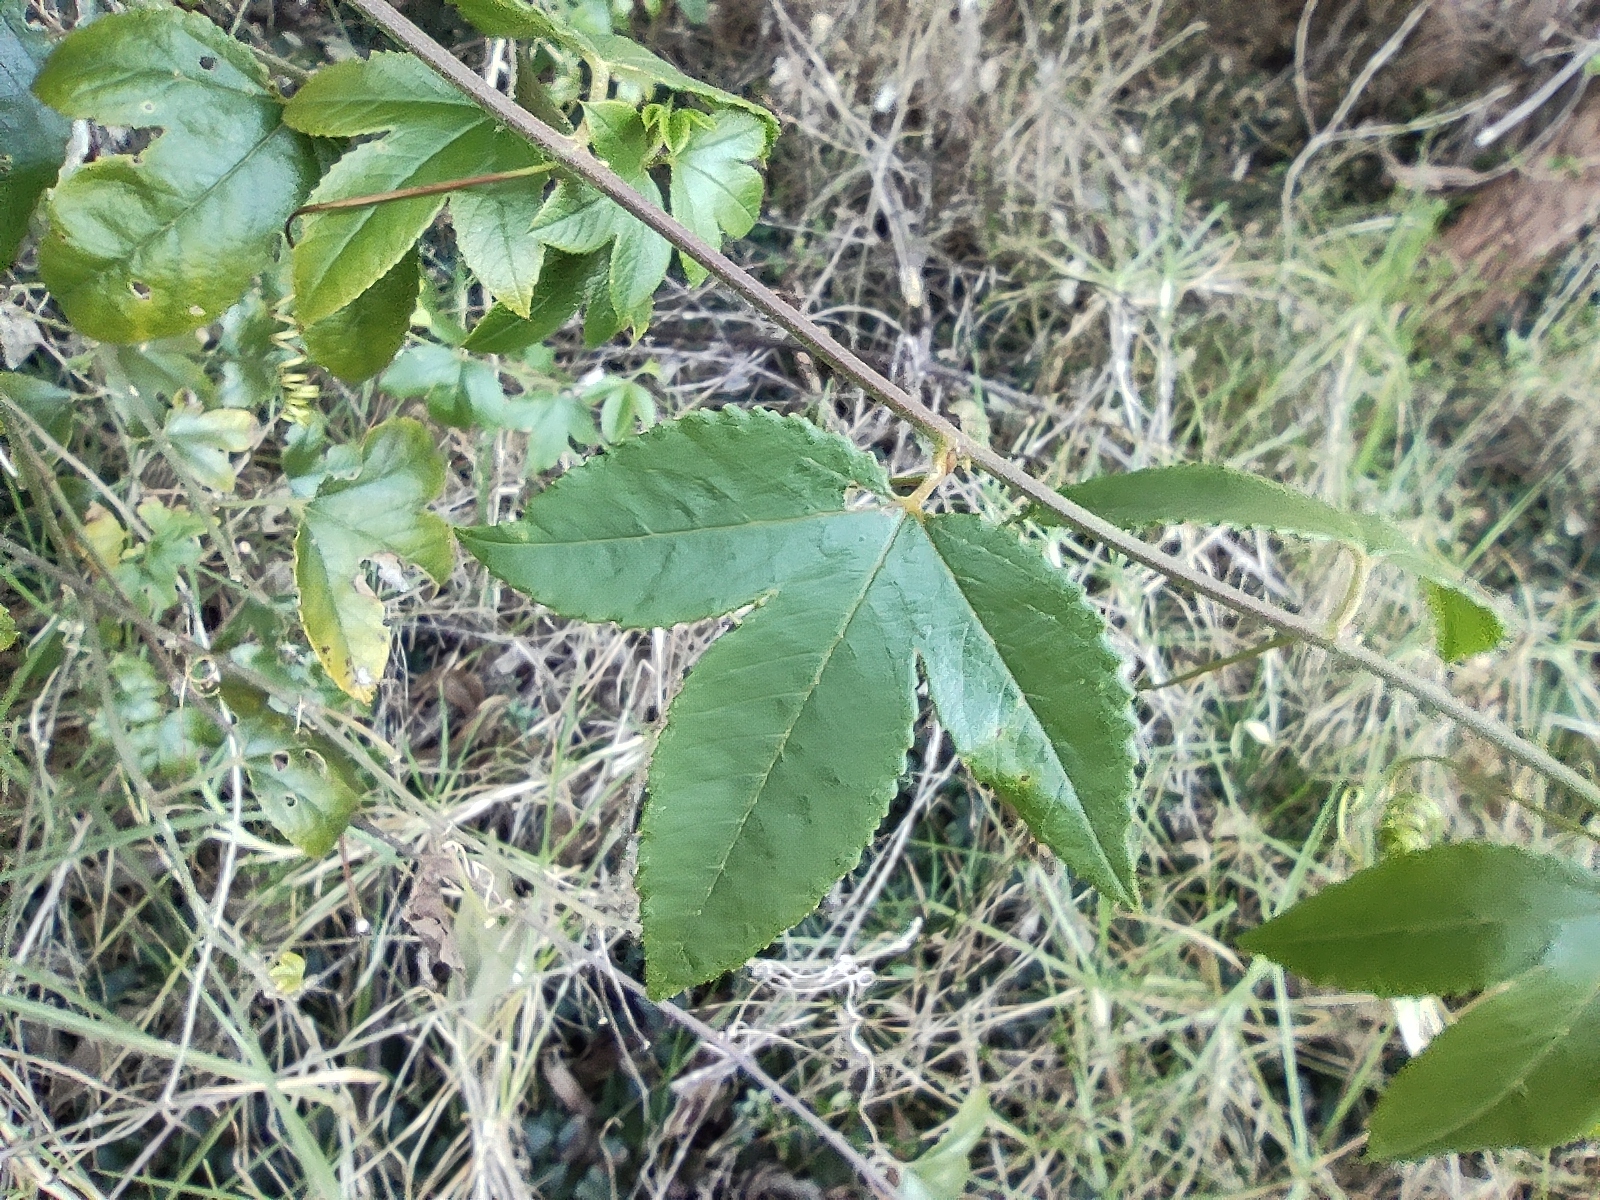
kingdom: Plantae
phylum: Tracheophyta
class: Magnoliopsida
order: Malpighiales
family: Passifloraceae
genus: Passiflora
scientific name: Passiflora tarminiana
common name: Banana poka
